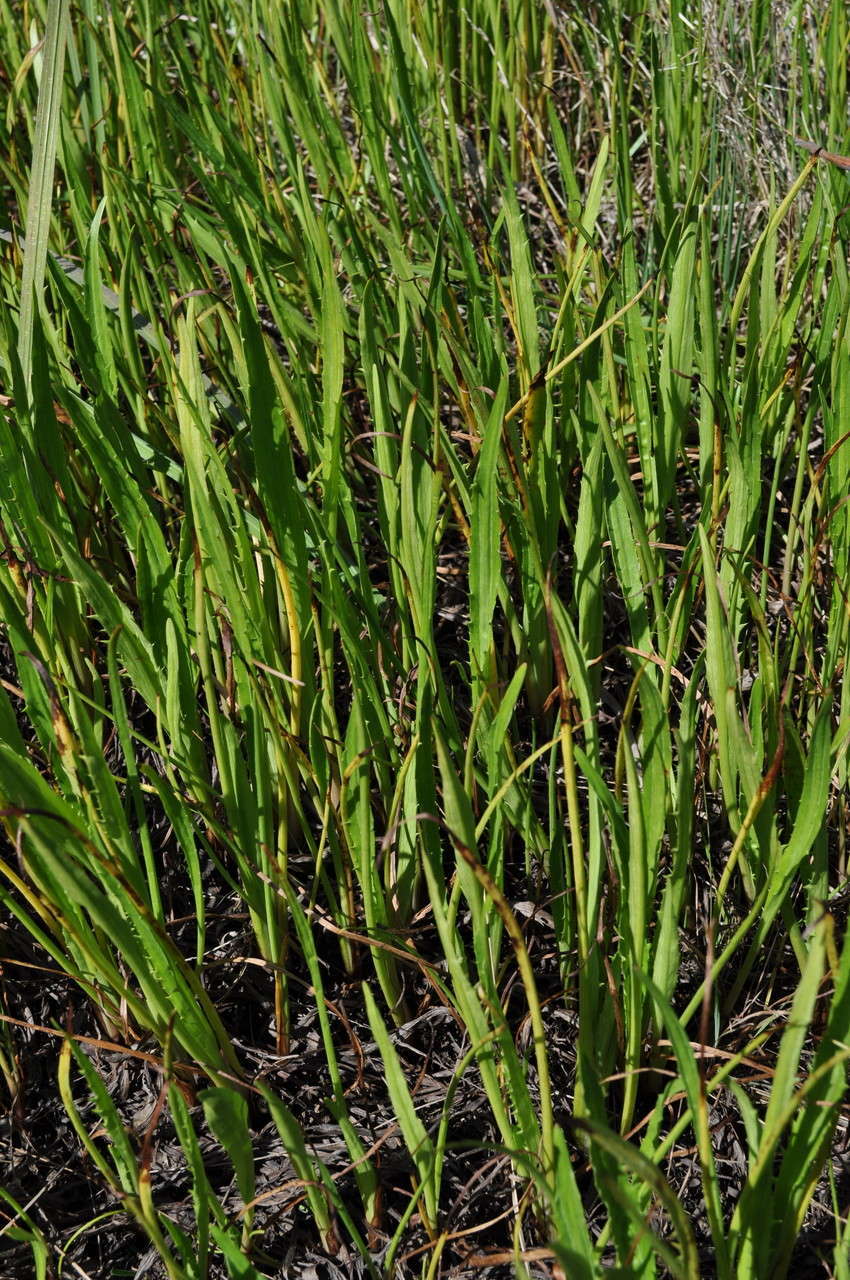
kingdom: Plantae
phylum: Tracheophyta
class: Magnoliopsida
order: Apiales
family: Apiaceae
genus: Eryngium
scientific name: Eryngium vesiculosum
